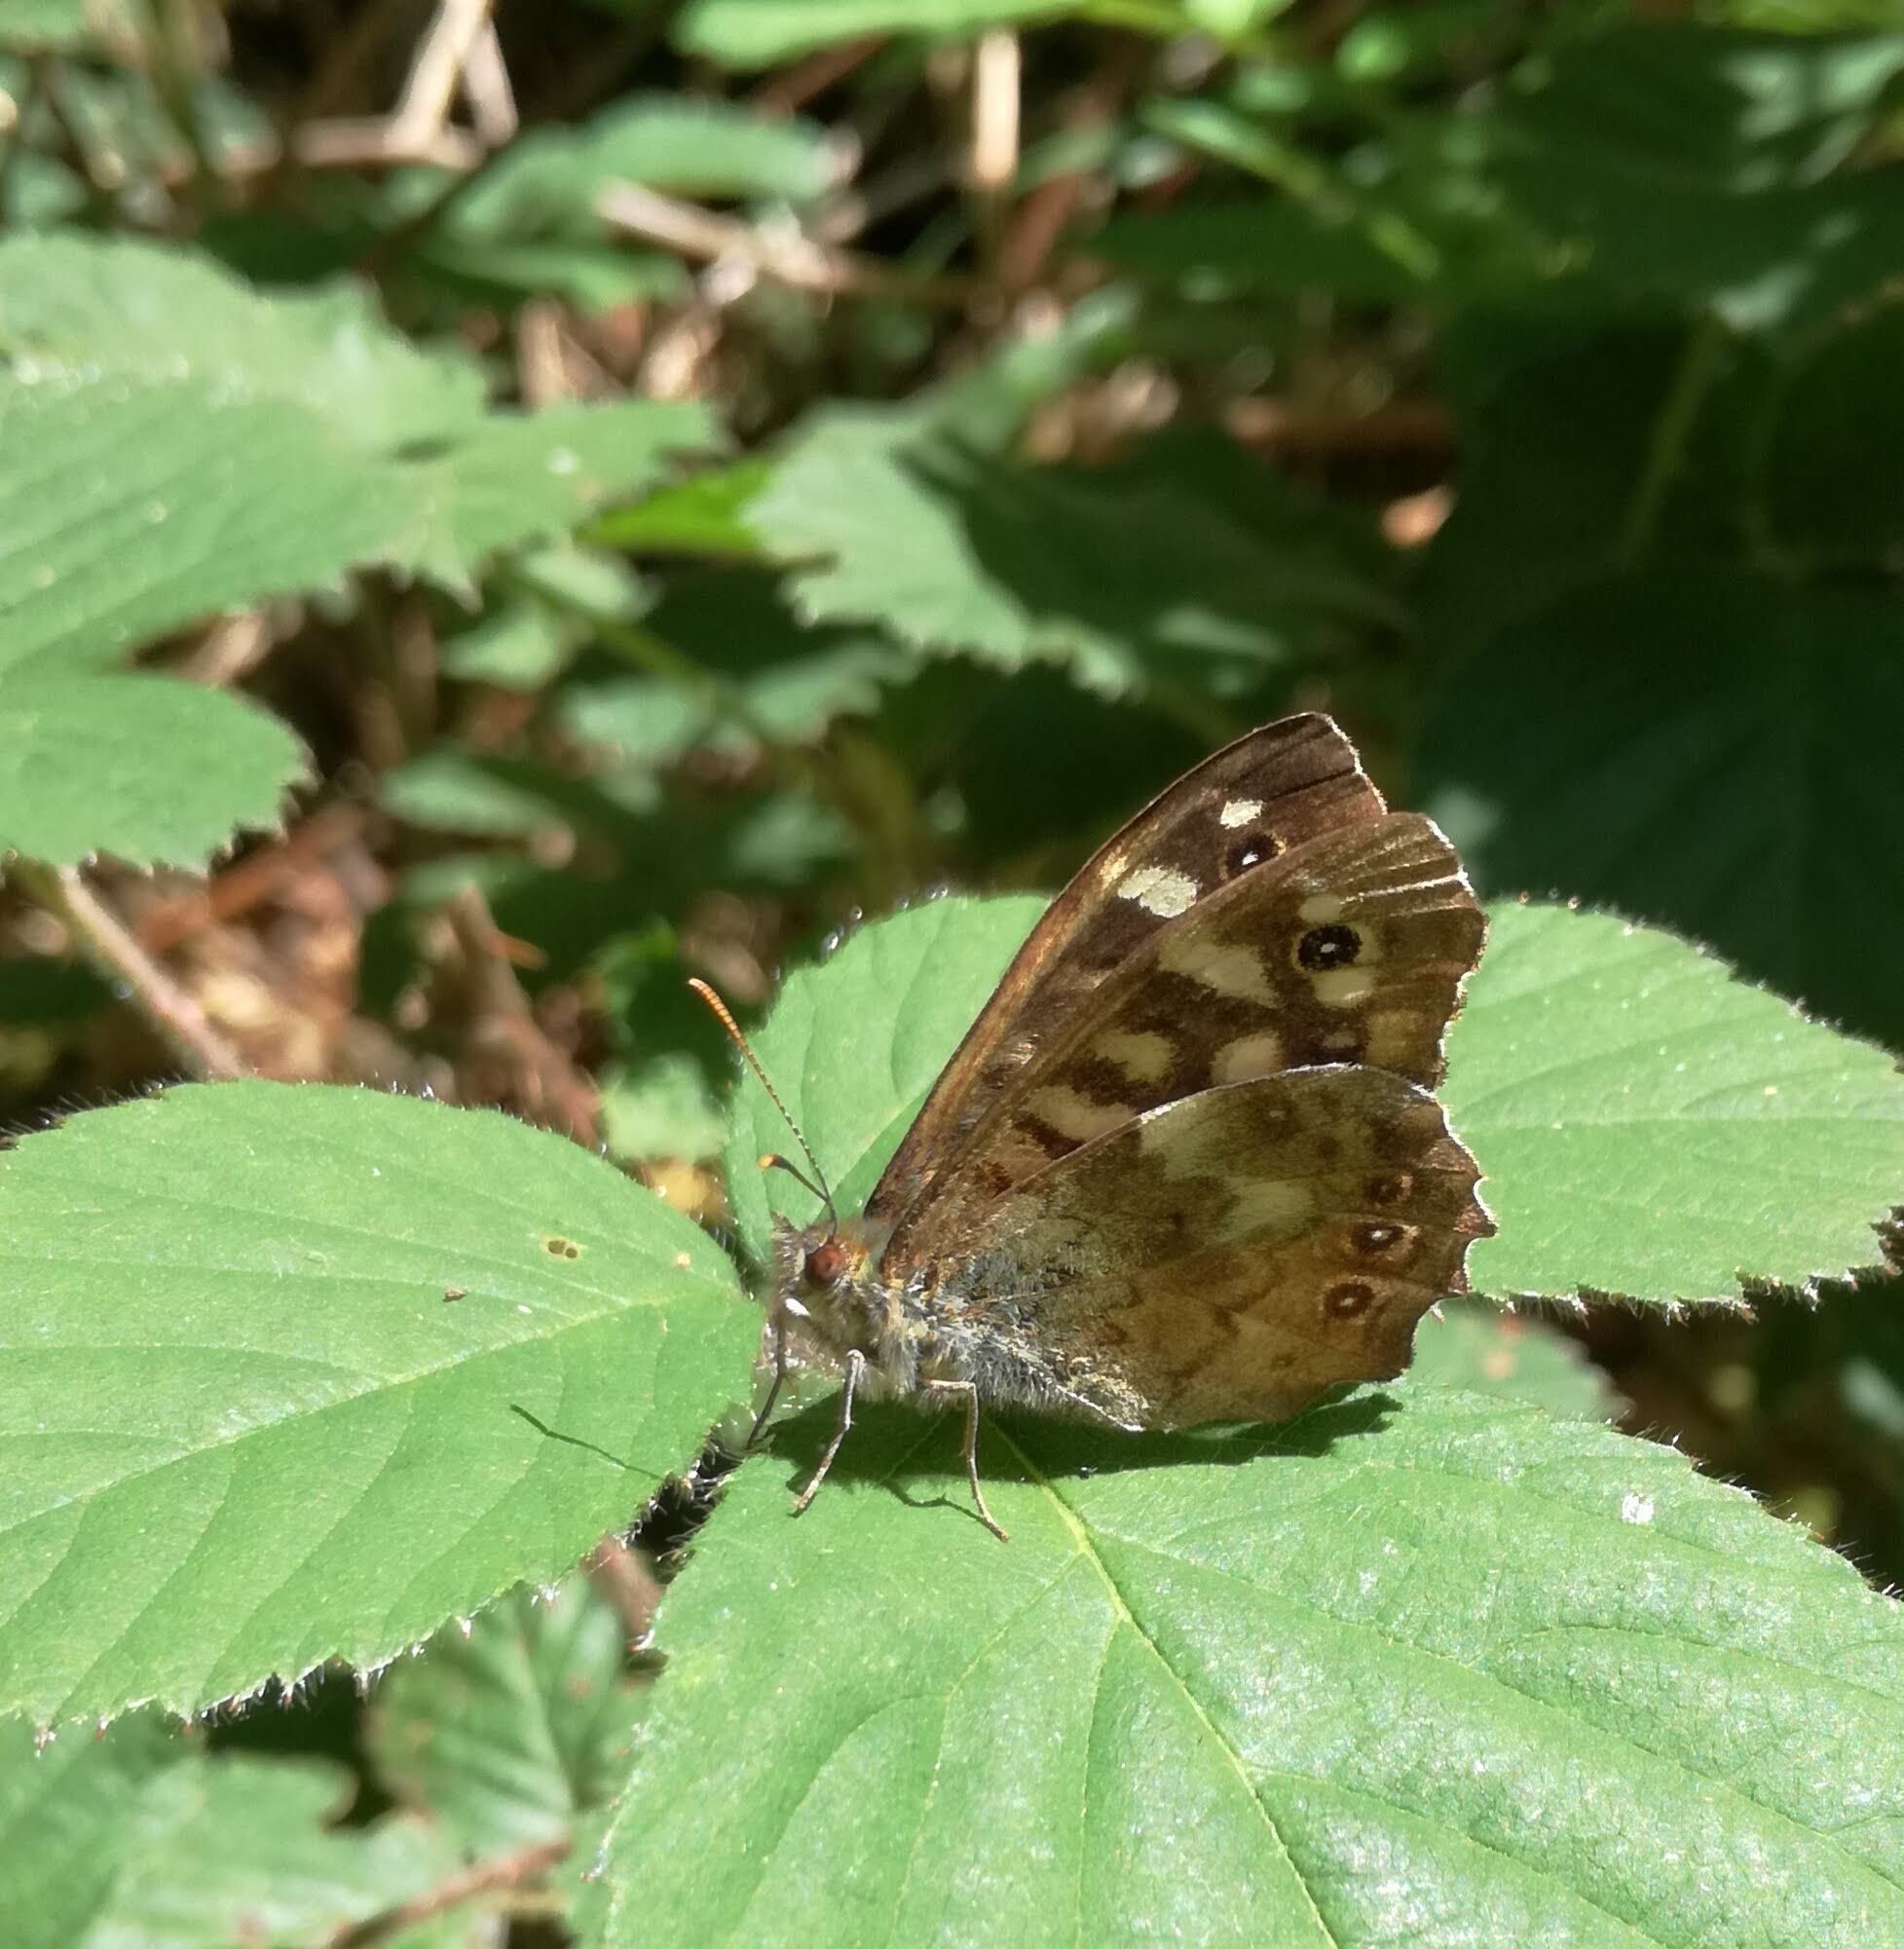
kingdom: Animalia
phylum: Arthropoda
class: Insecta
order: Lepidoptera
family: Nymphalidae
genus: Pararge
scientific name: Pararge aegeria
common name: Speckled wood
